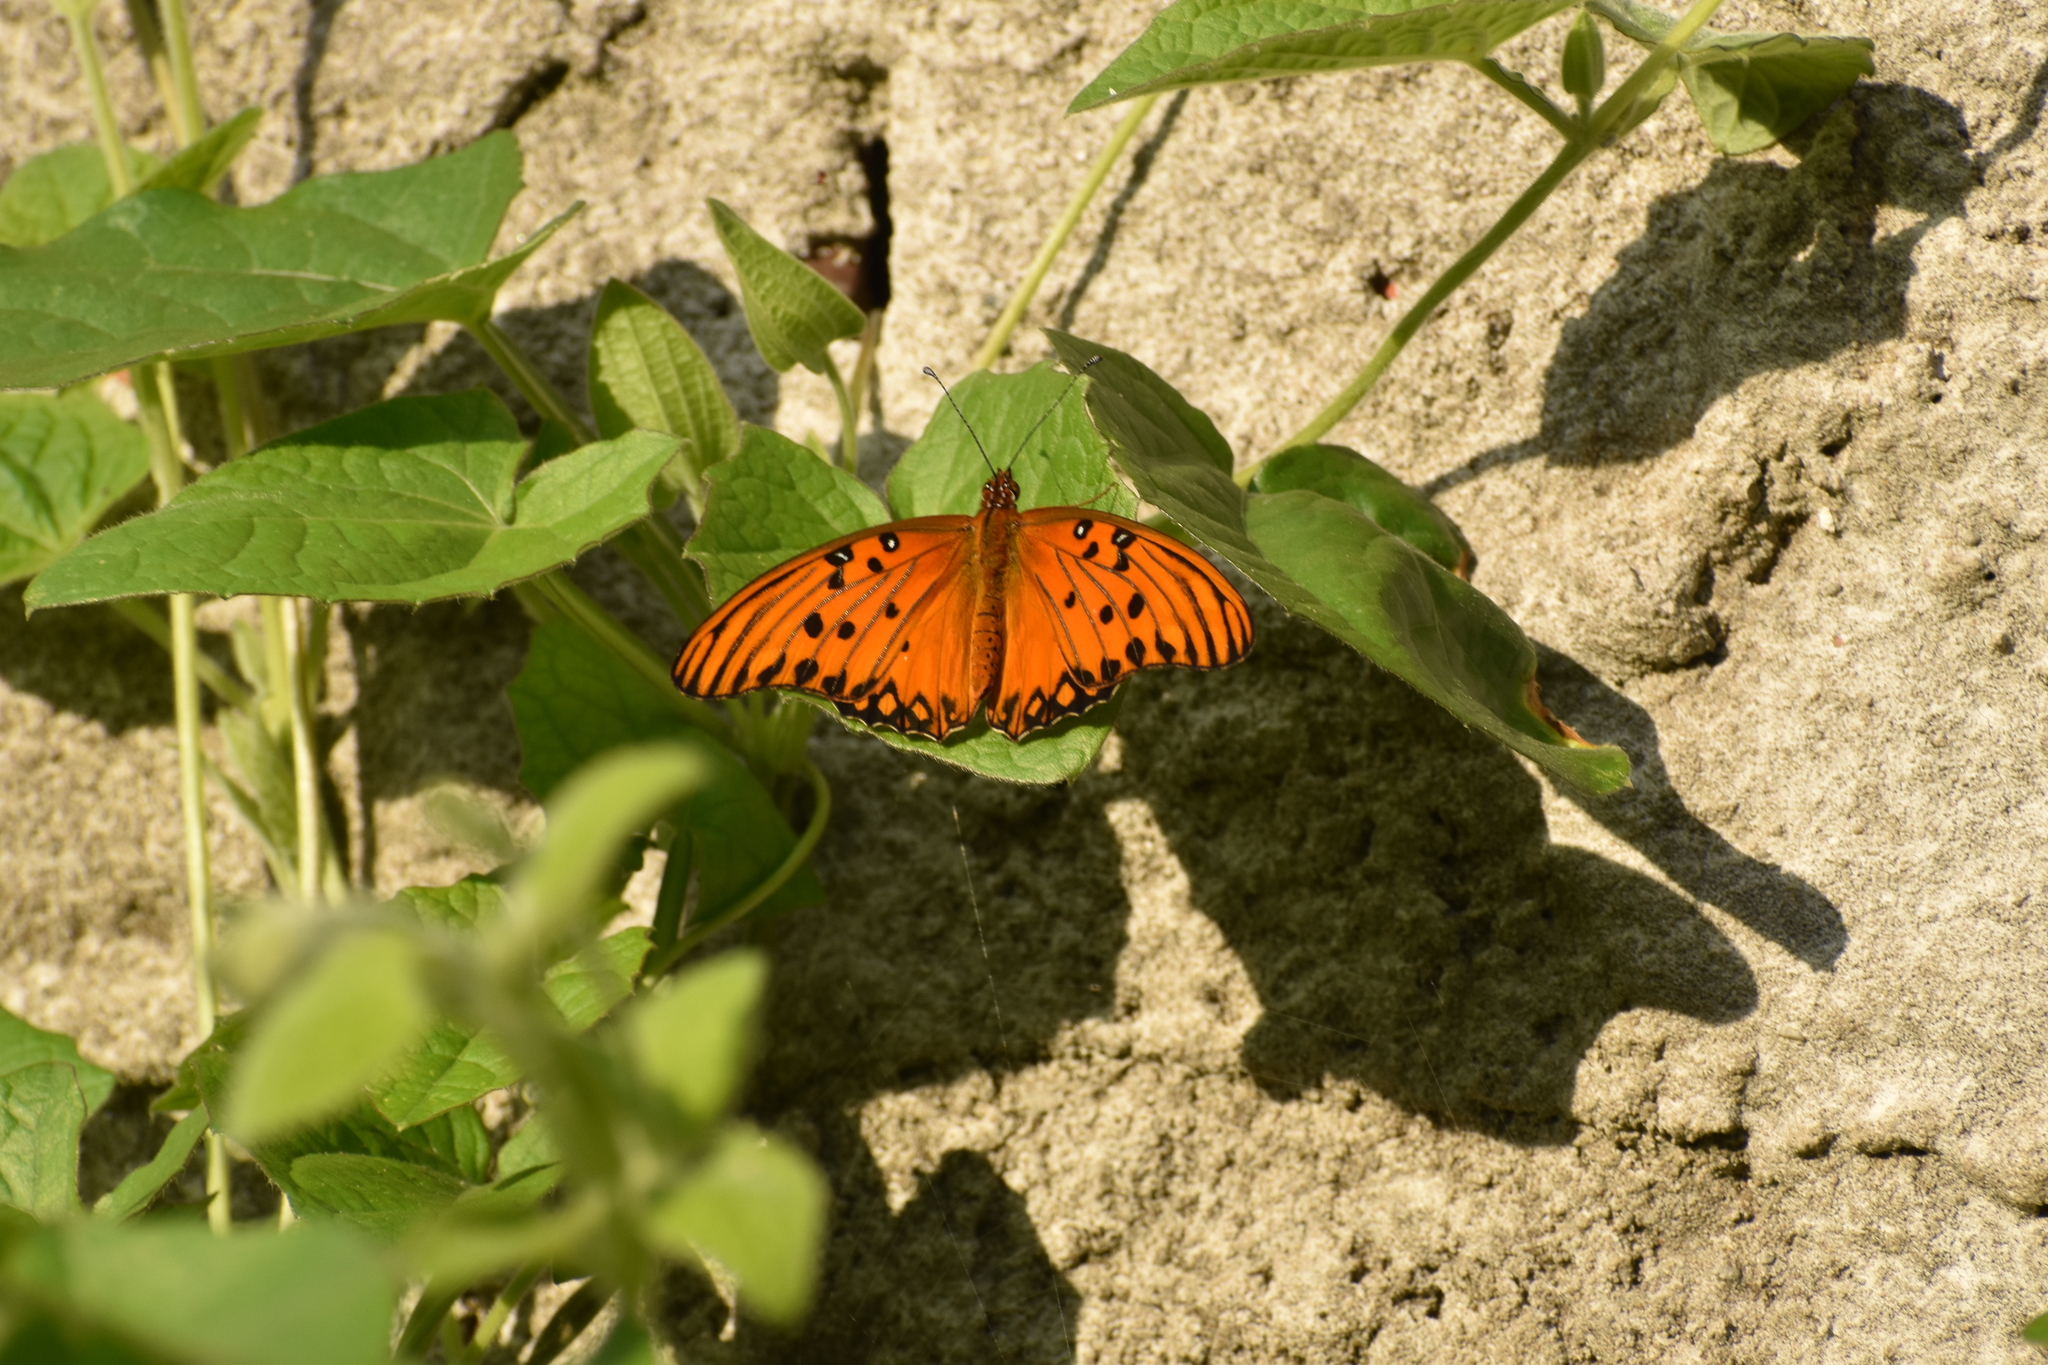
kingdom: Animalia
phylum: Arthropoda
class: Insecta
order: Lepidoptera
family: Nymphalidae
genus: Dione
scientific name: Dione vanillae
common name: Gulf fritillary
